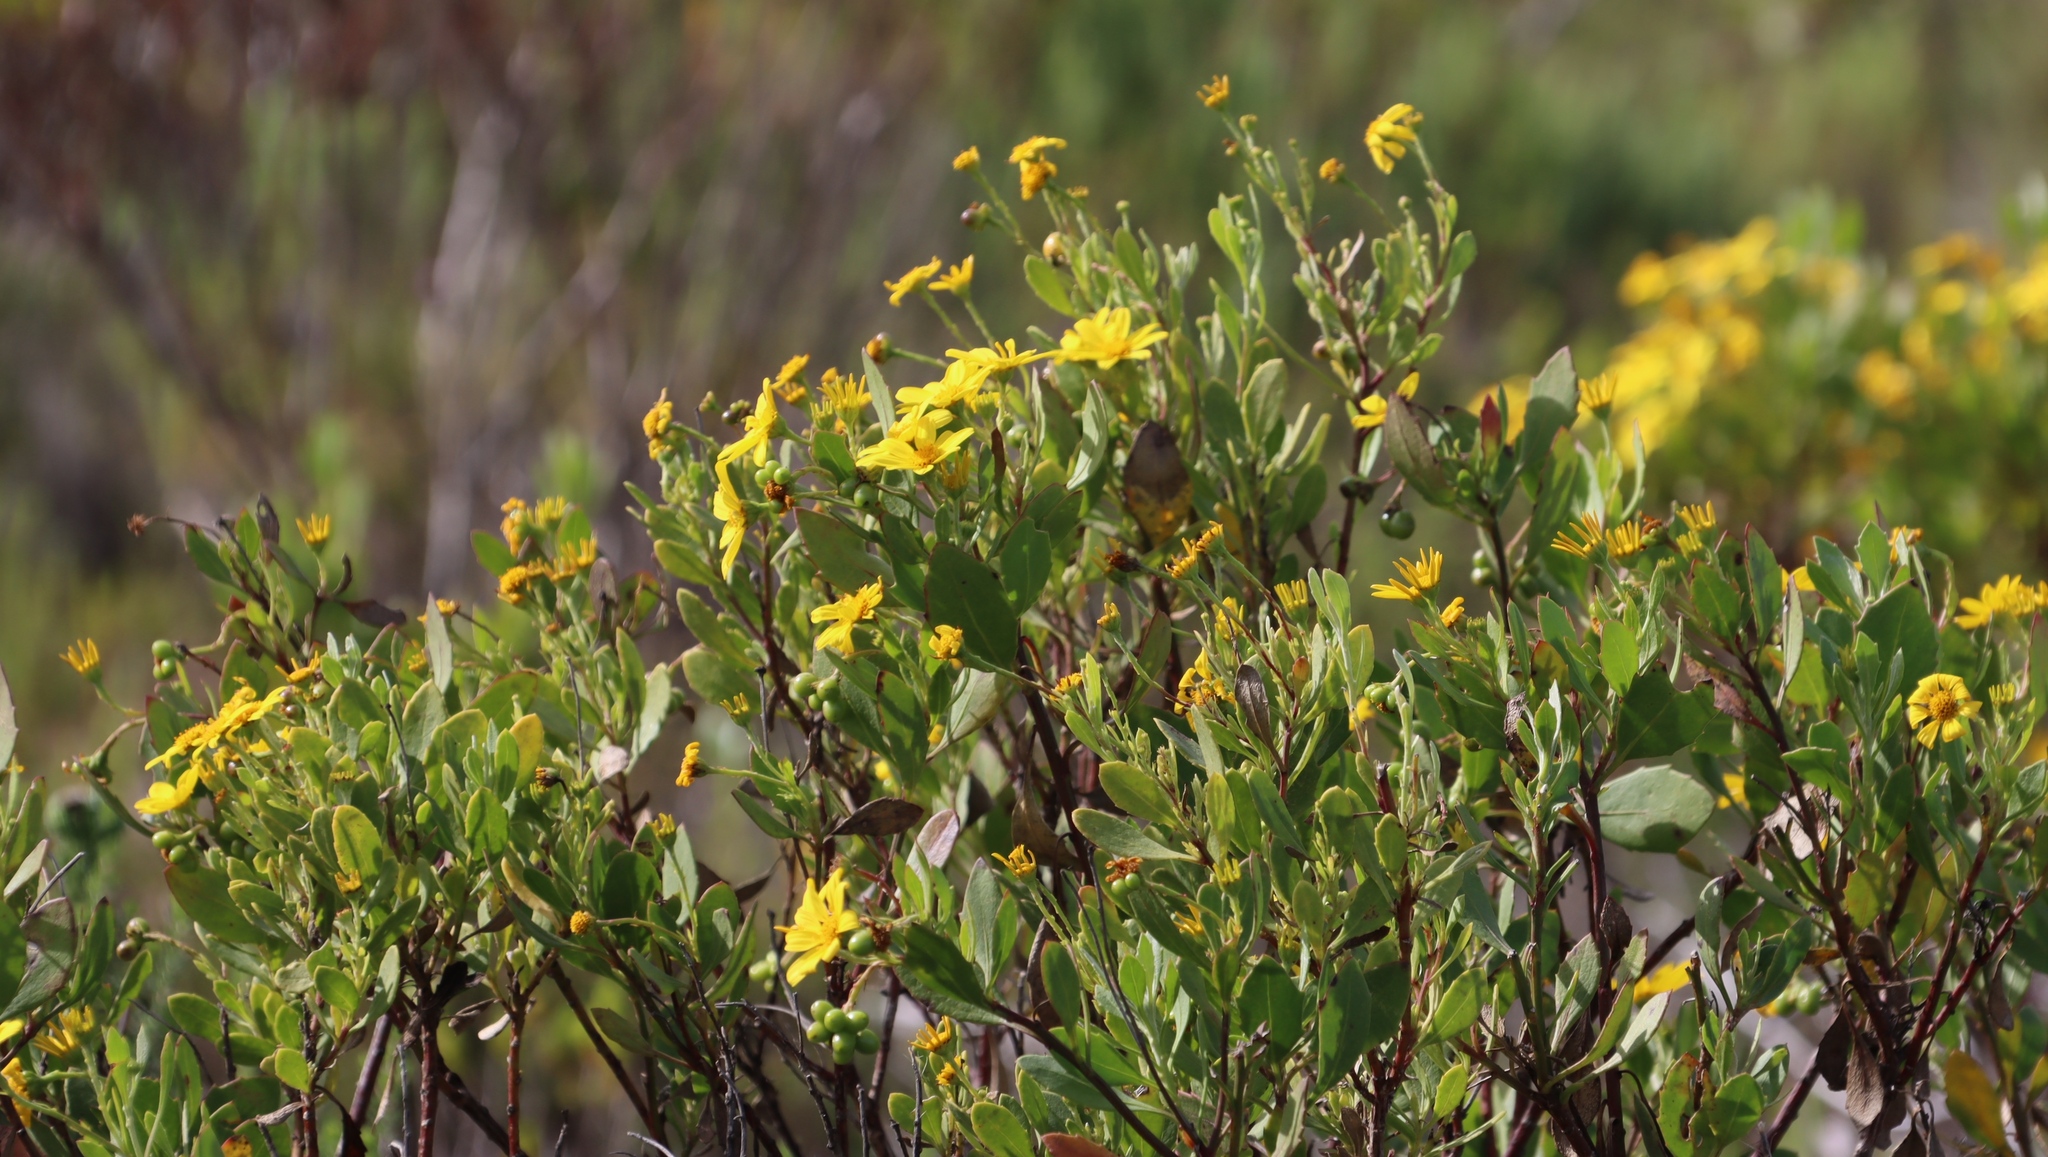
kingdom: Plantae
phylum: Tracheophyta
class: Magnoliopsida
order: Asterales
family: Asteraceae
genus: Osteospermum
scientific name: Osteospermum moniliferum
